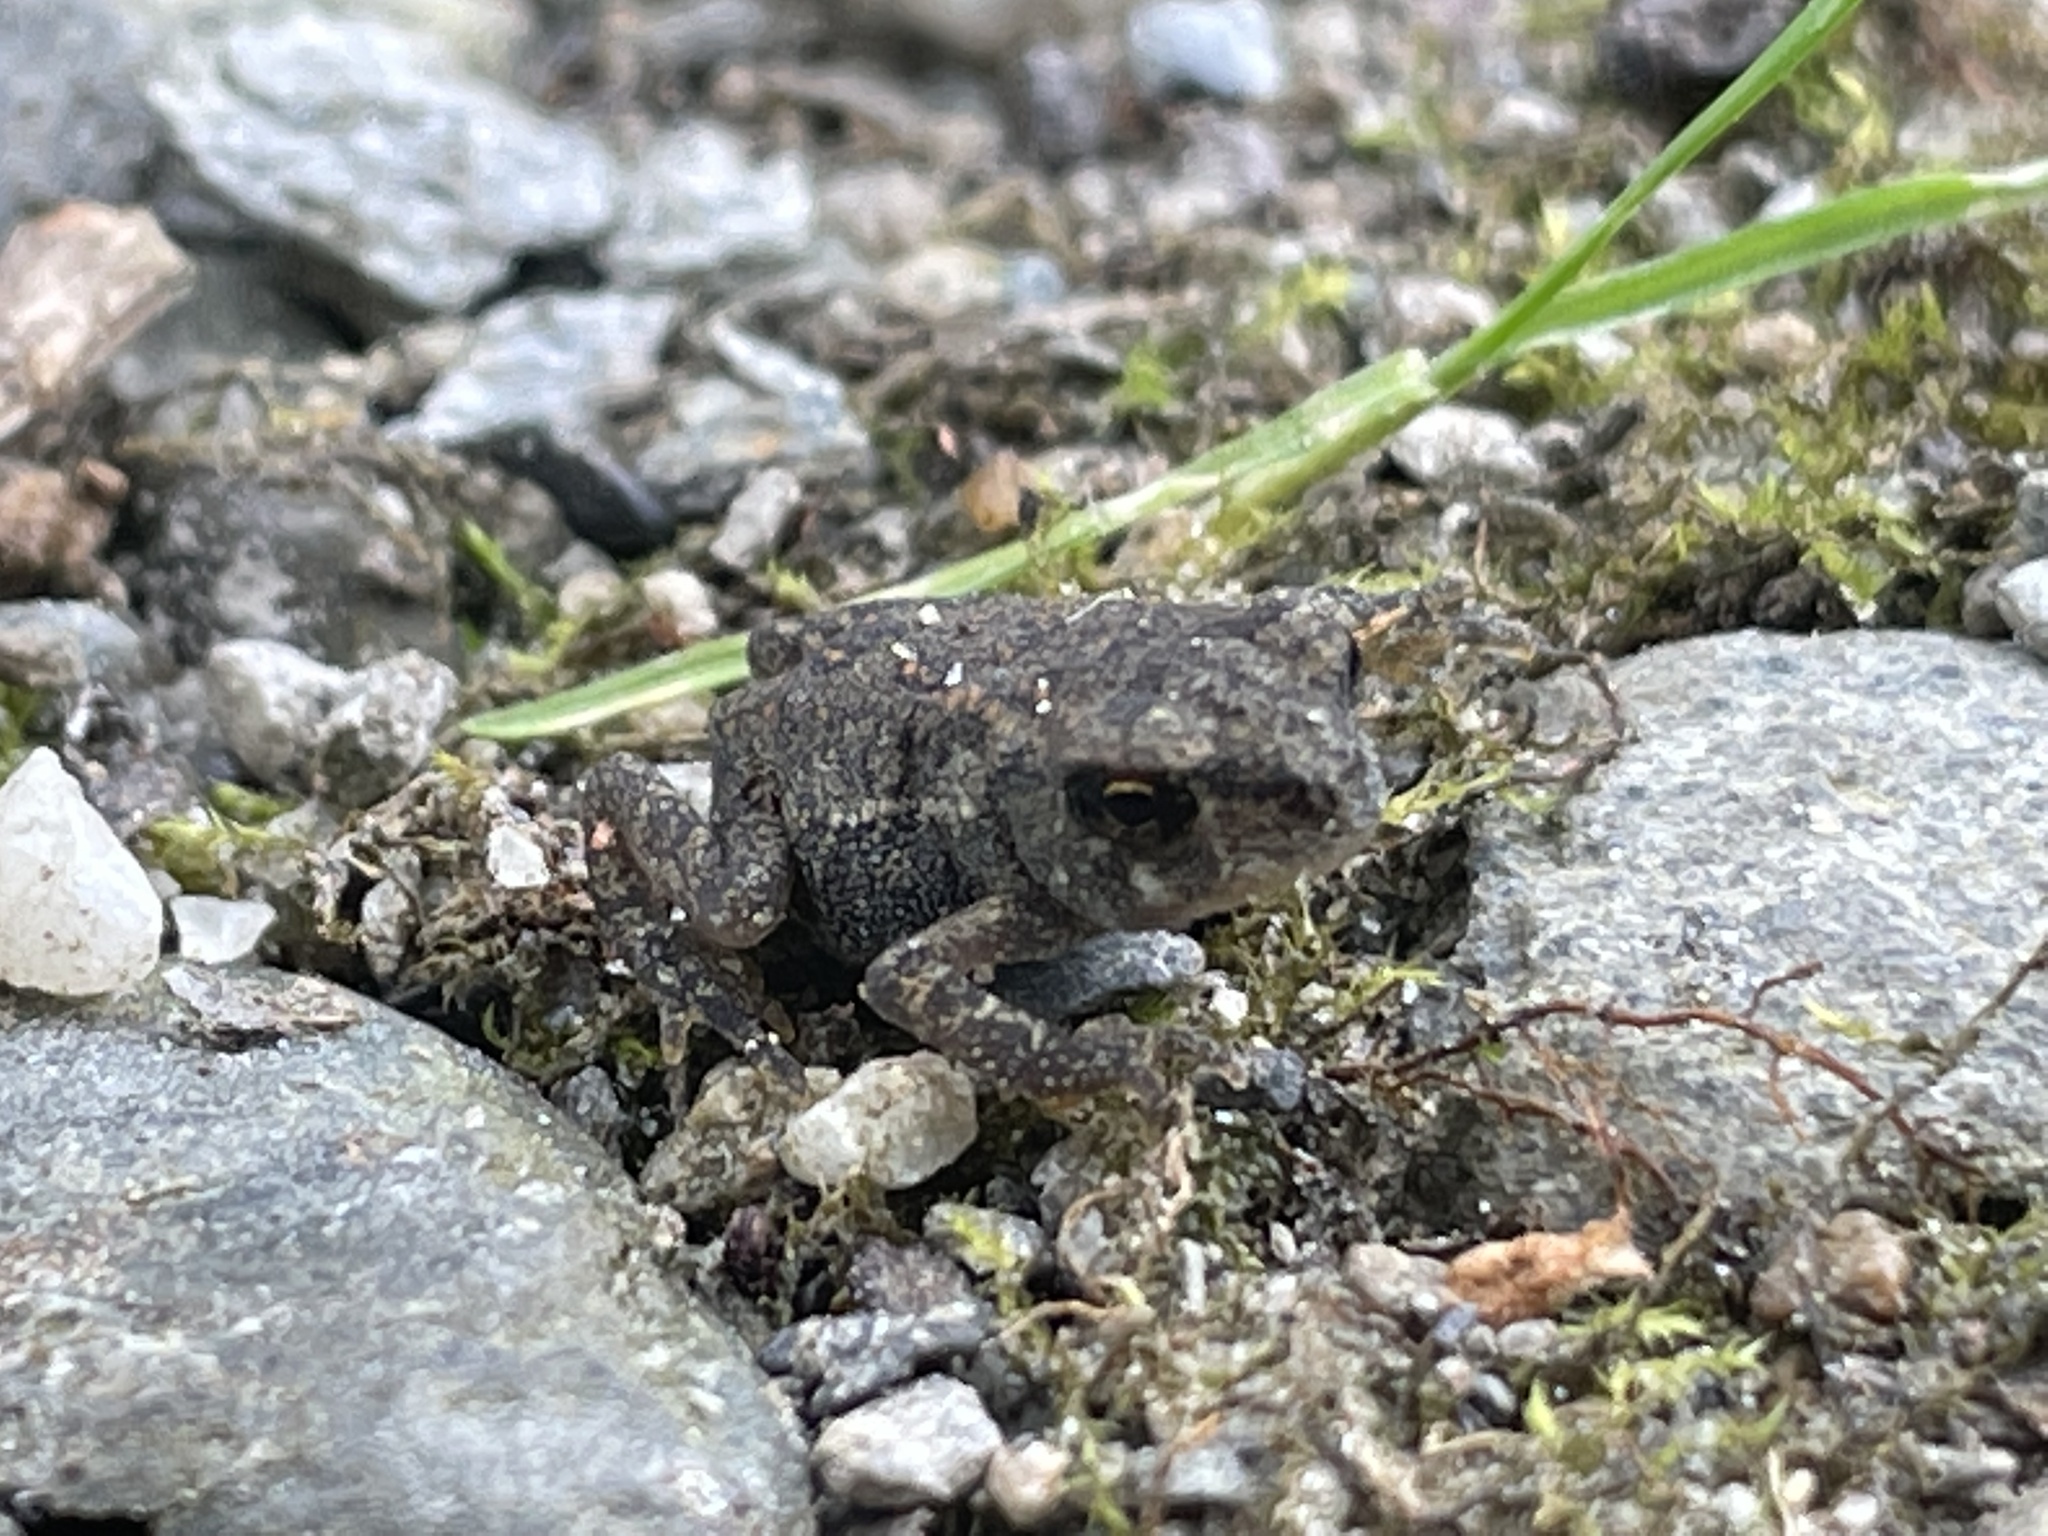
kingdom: Animalia
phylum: Chordata
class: Amphibia
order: Anura
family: Bufonidae
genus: Anaxyrus
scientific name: Anaxyrus americanus
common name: American toad
